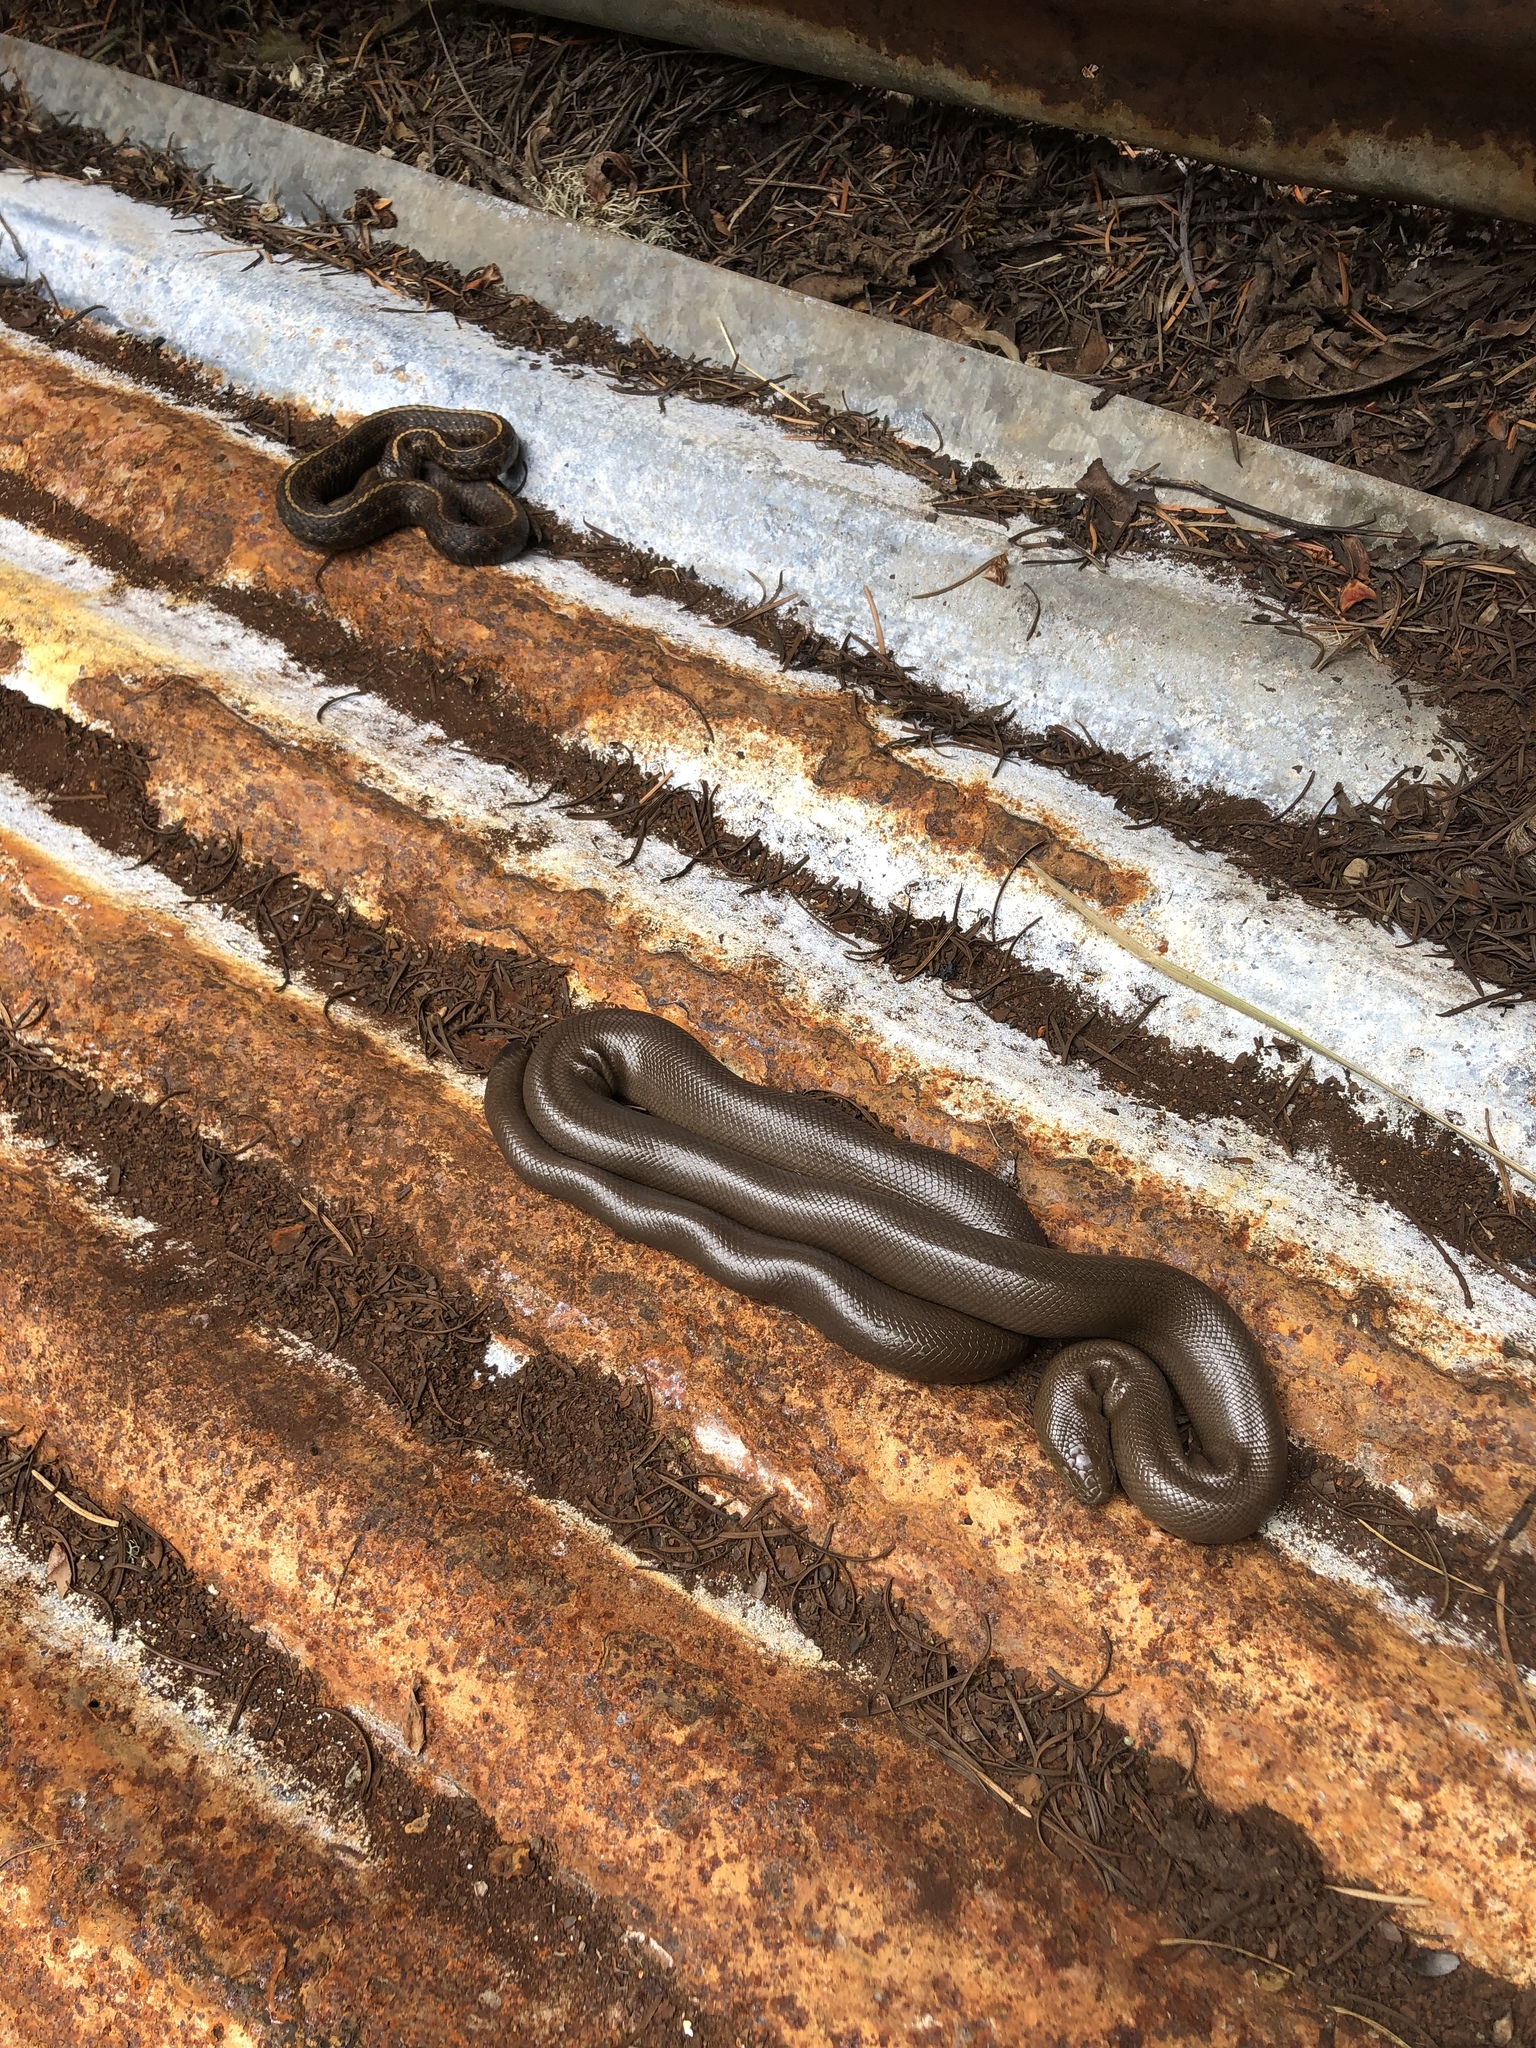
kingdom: Animalia
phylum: Chordata
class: Squamata
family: Colubridae
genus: Thamnophis
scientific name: Thamnophis ordinoides
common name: Northwestern garter snake
